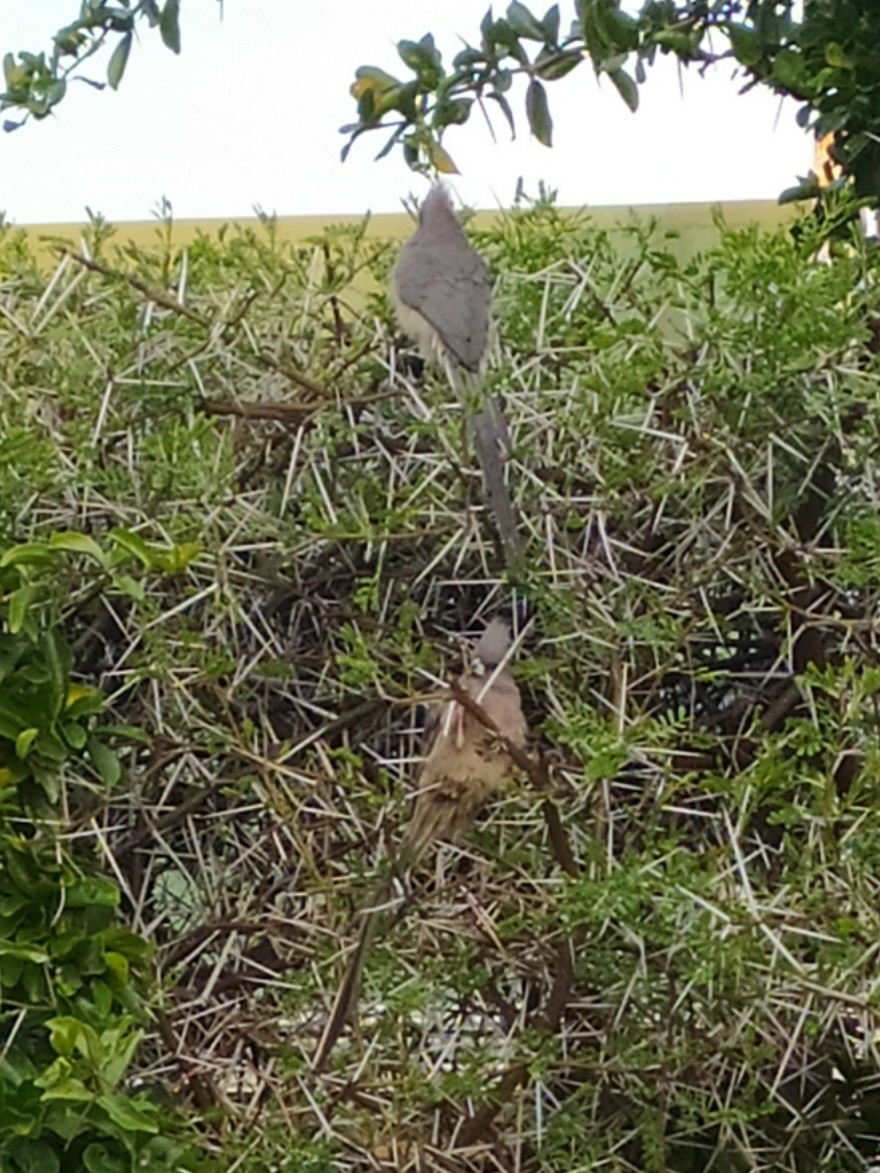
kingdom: Animalia
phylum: Chordata
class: Aves
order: Coliiformes
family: Coliidae
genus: Colius
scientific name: Colius colius
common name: White-backed mousebird
